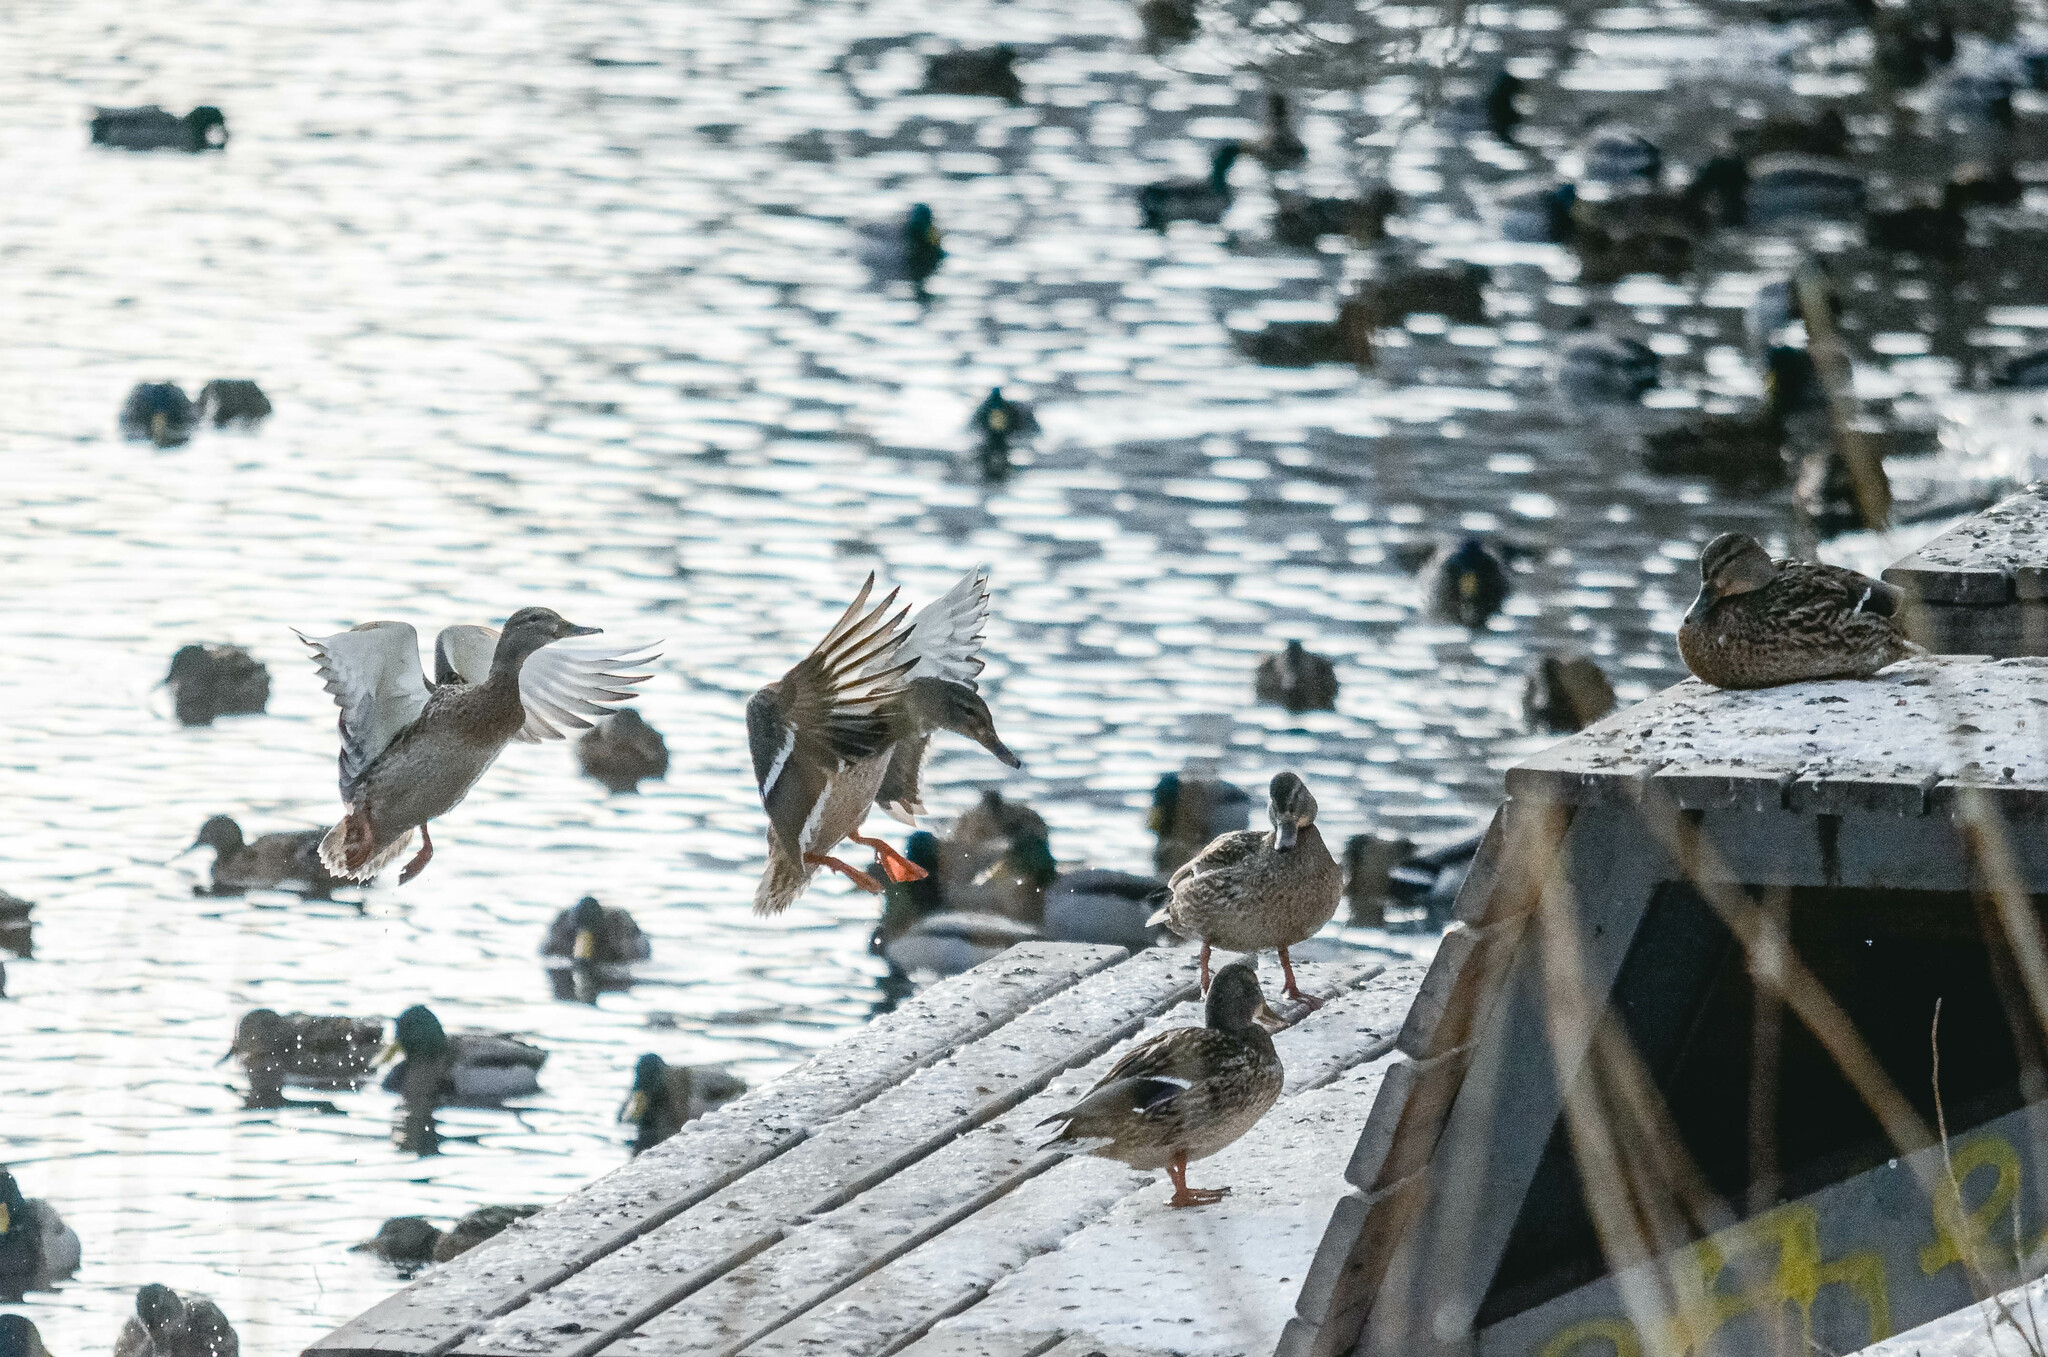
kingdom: Animalia
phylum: Chordata
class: Aves
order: Anseriformes
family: Anatidae
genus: Anas
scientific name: Anas platyrhynchos
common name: Mallard
